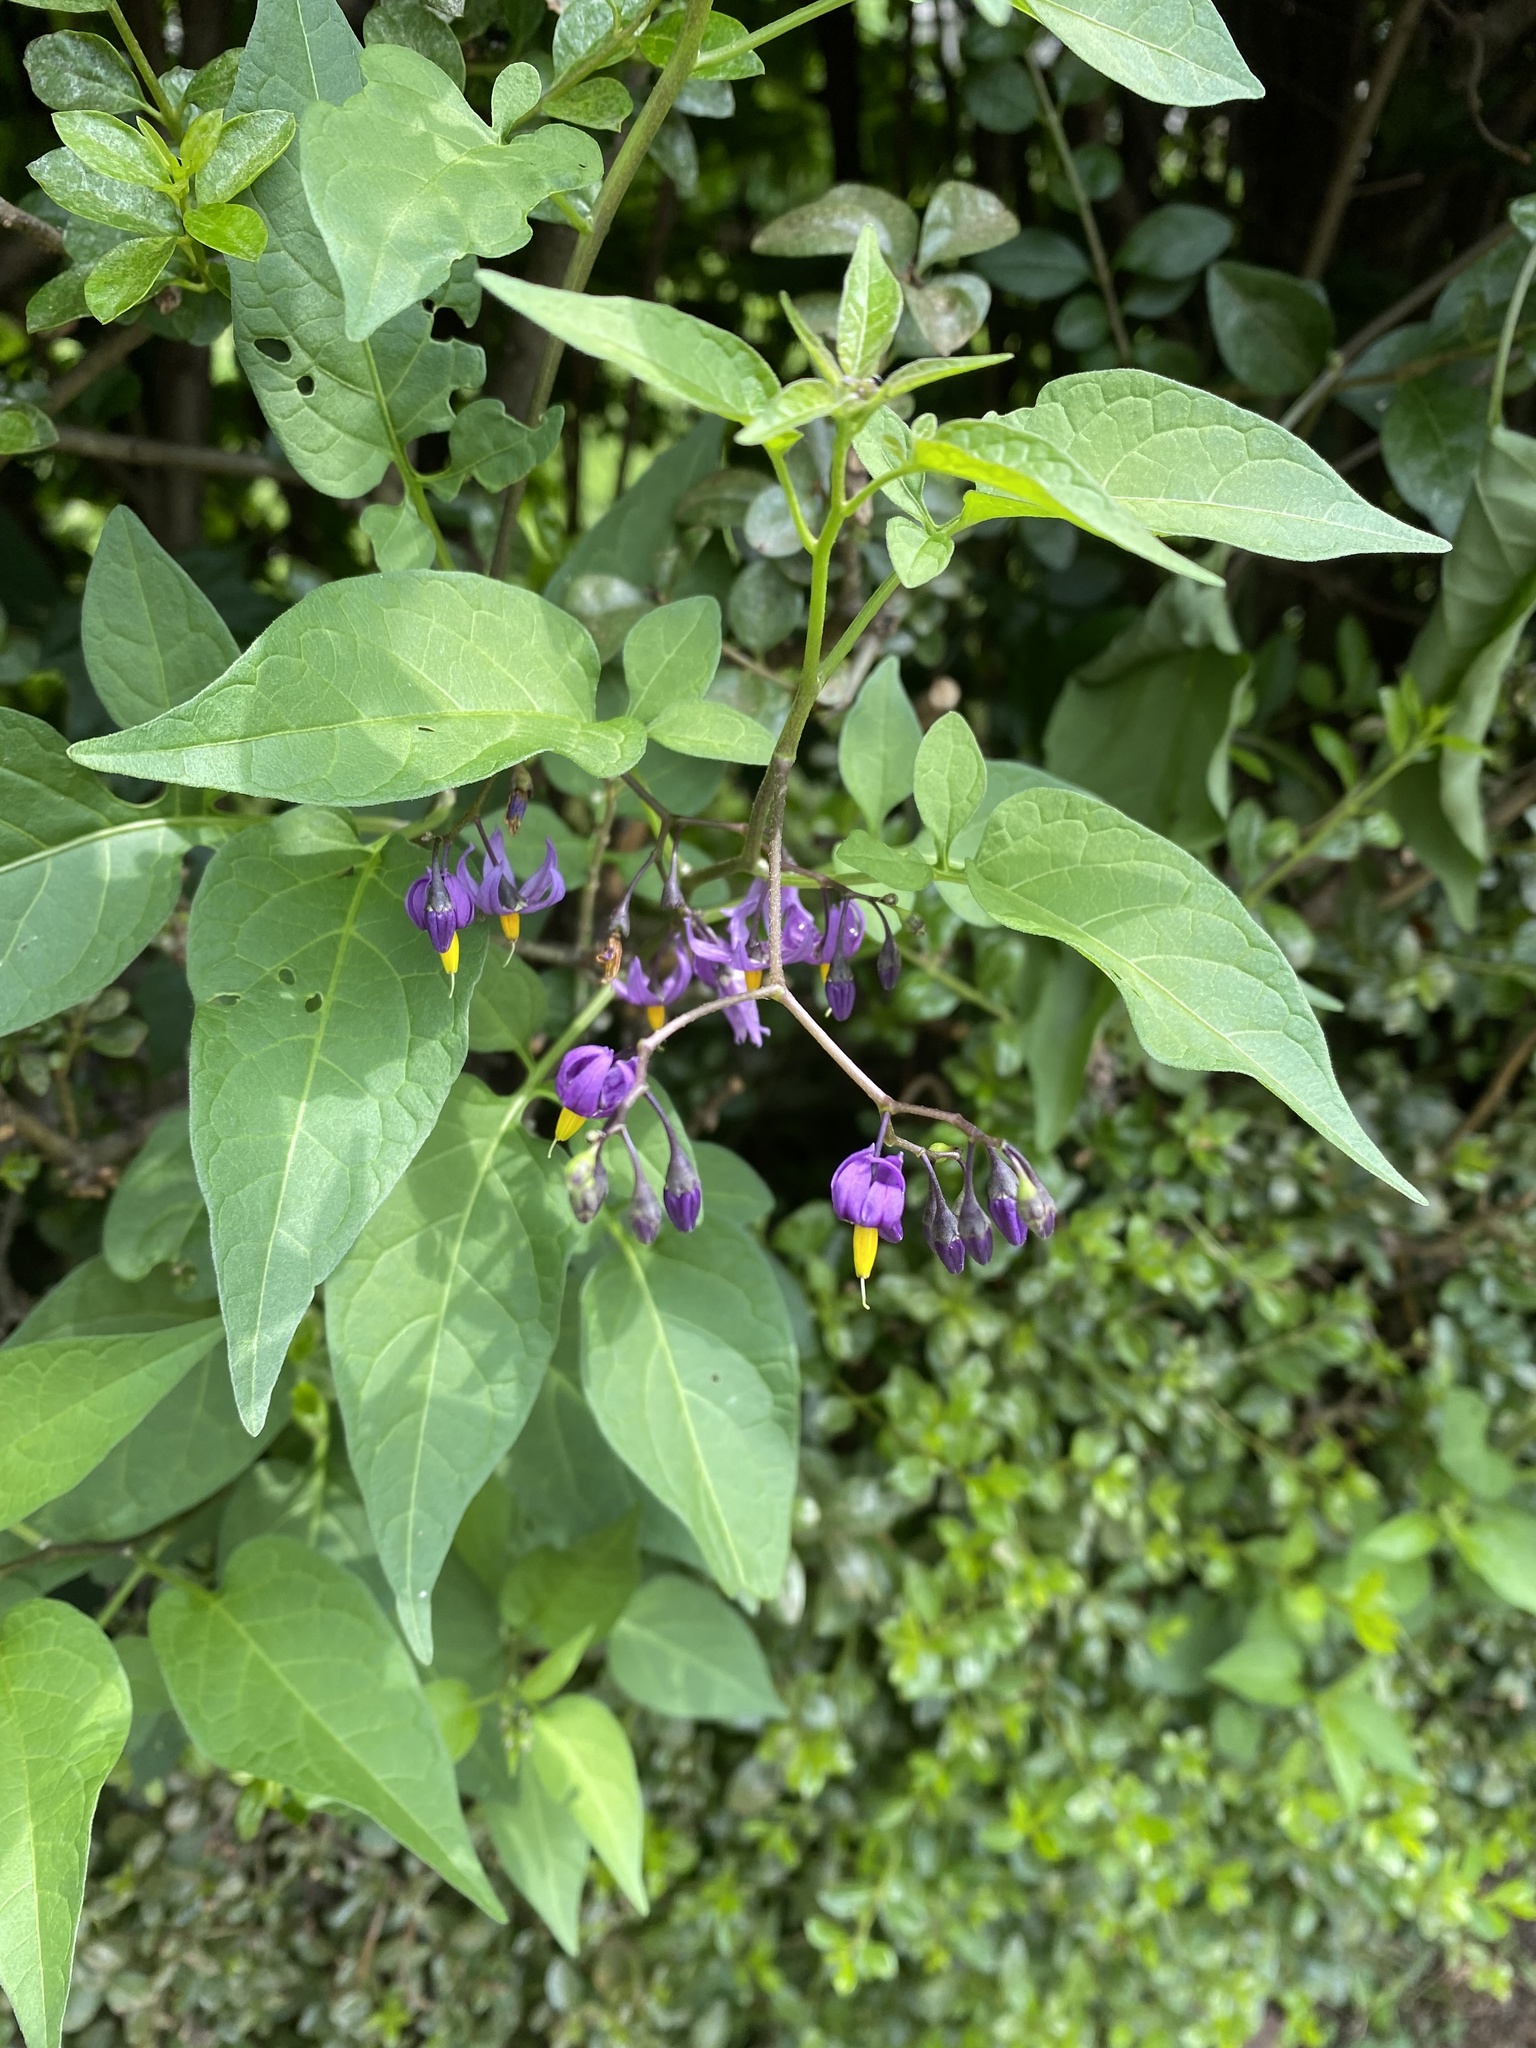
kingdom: Plantae
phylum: Tracheophyta
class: Magnoliopsida
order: Solanales
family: Solanaceae
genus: Solanum
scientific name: Solanum dulcamara
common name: Climbing nightshade
